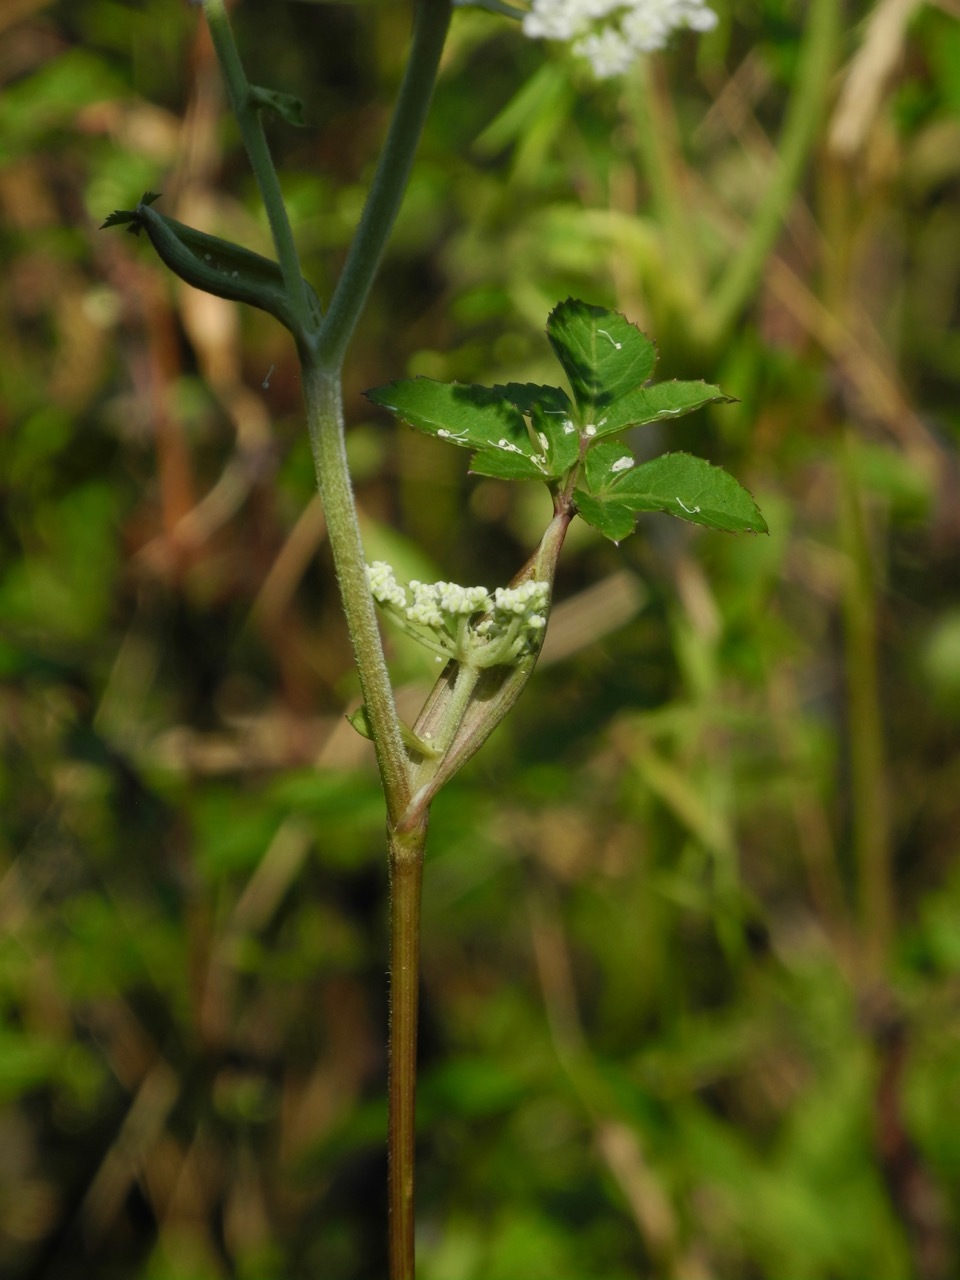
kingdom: Plantae
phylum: Tracheophyta
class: Magnoliopsida
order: Apiales
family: Apiaceae
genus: Angelica
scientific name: Angelica venenosa
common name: Hairy angelica
